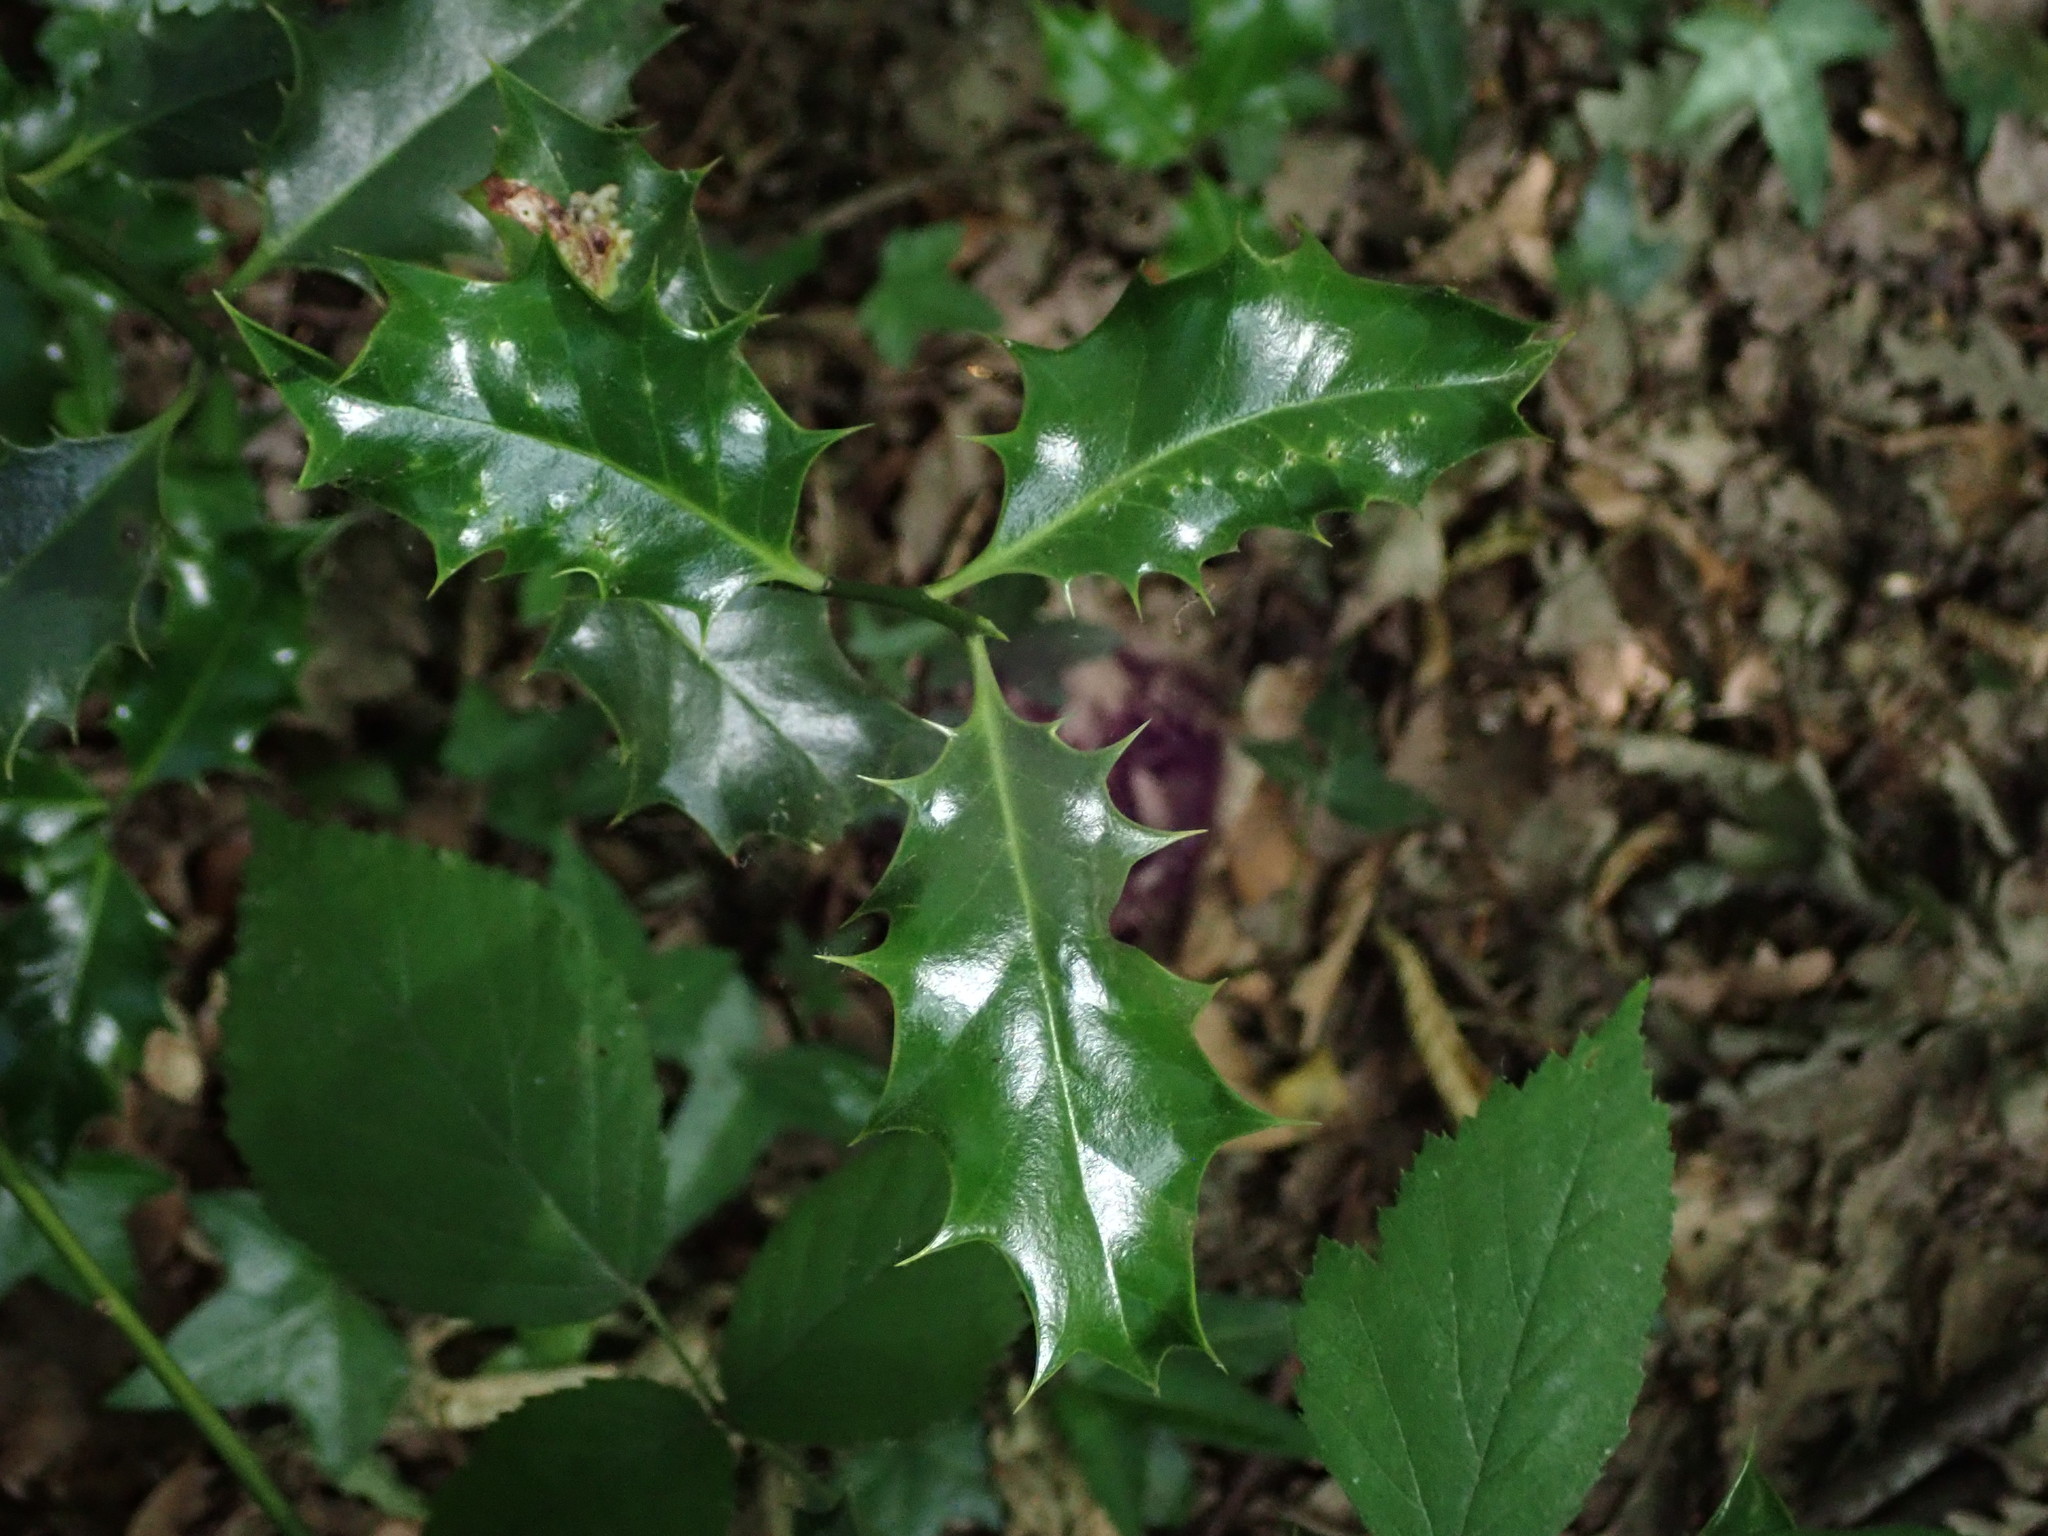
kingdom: Plantae
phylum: Tracheophyta
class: Magnoliopsida
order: Aquifoliales
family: Aquifoliaceae
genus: Ilex
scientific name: Ilex aquifolium
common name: English holly
